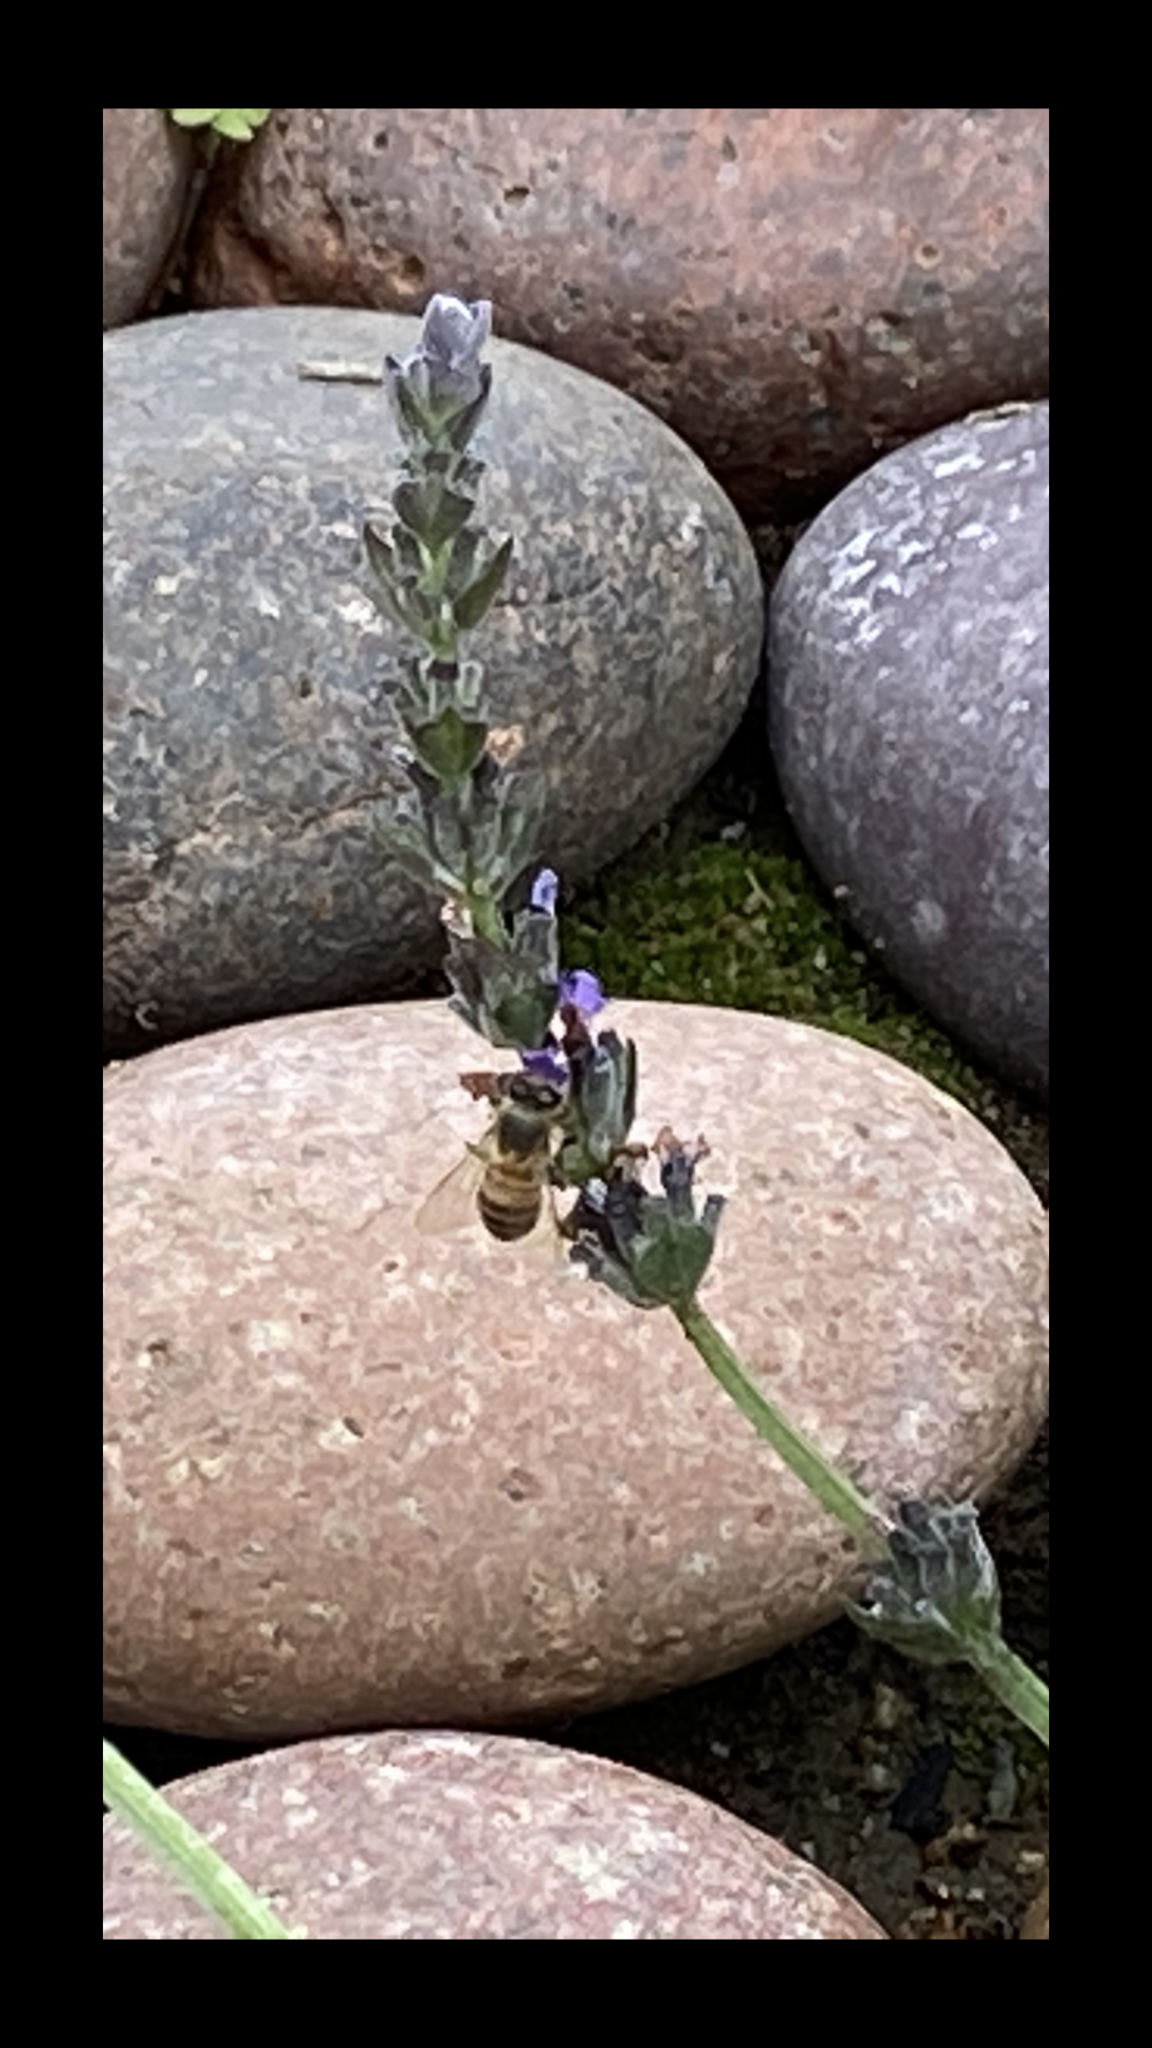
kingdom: Animalia
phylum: Arthropoda
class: Insecta
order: Hymenoptera
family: Apidae
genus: Apis
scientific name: Apis mellifera
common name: Honey bee
